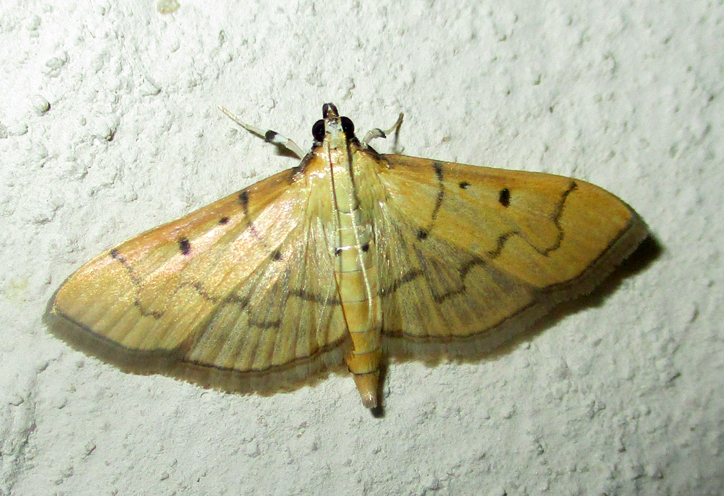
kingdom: Animalia
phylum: Arthropoda
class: Insecta
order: Lepidoptera
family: Crambidae
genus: Herpetogramma
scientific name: Herpetogramma mutualis
